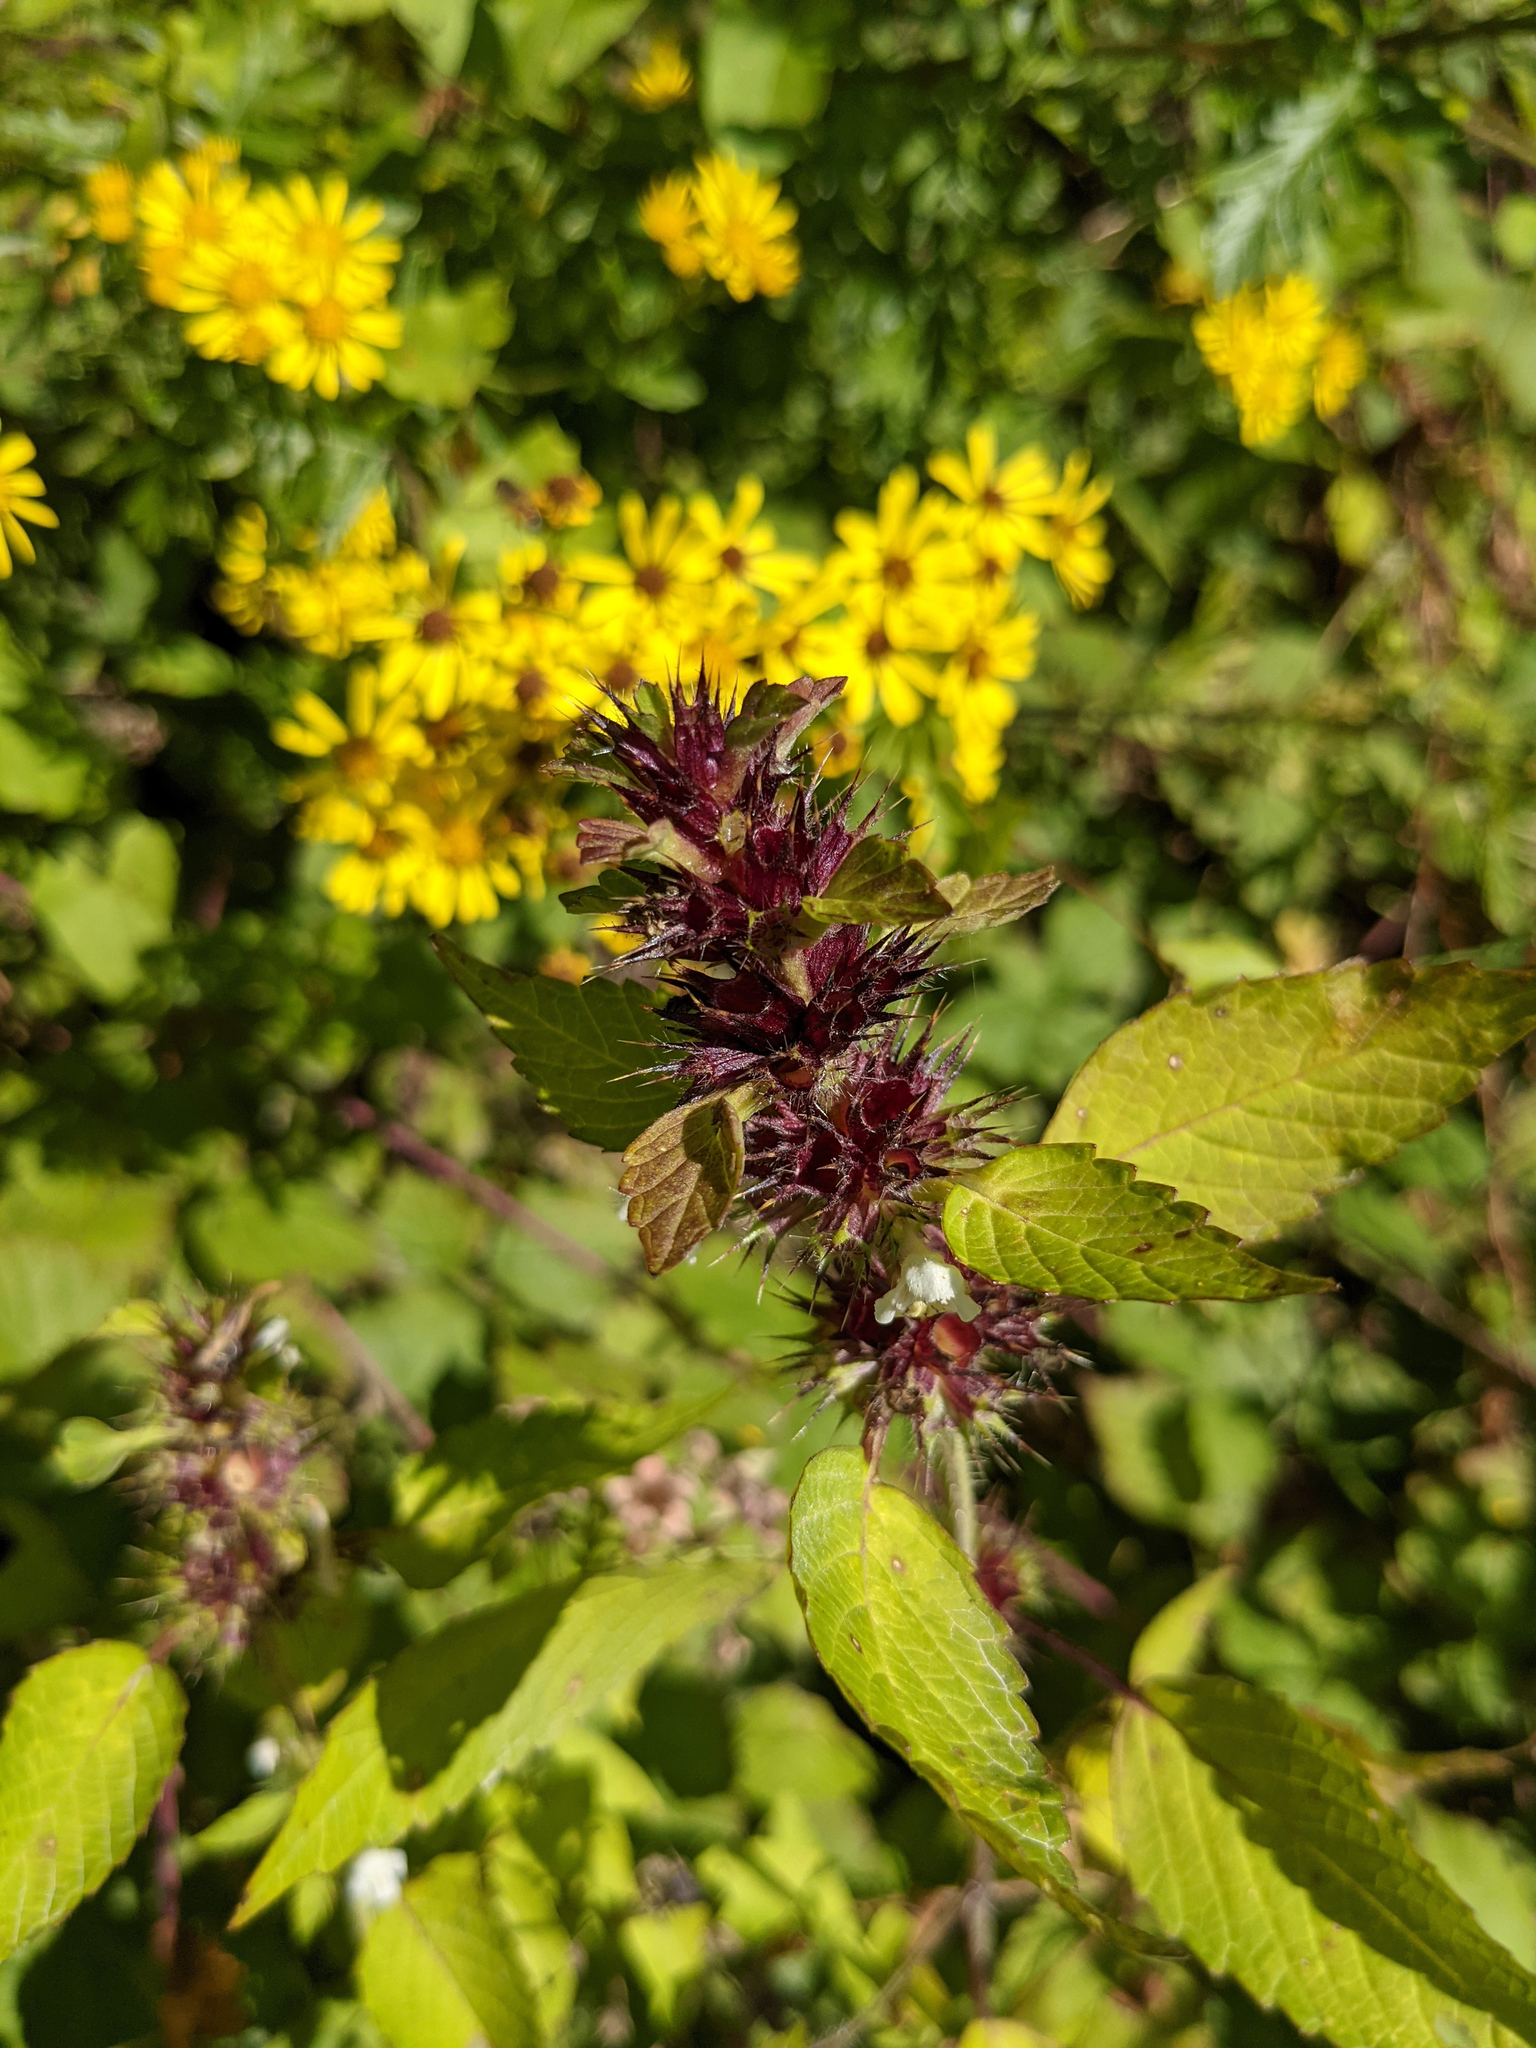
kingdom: Plantae
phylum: Tracheophyta
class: Magnoliopsida
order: Lamiales
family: Lamiaceae
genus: Galeopsis
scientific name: Galeopsis tetrahit
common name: Common hemp-nettle
